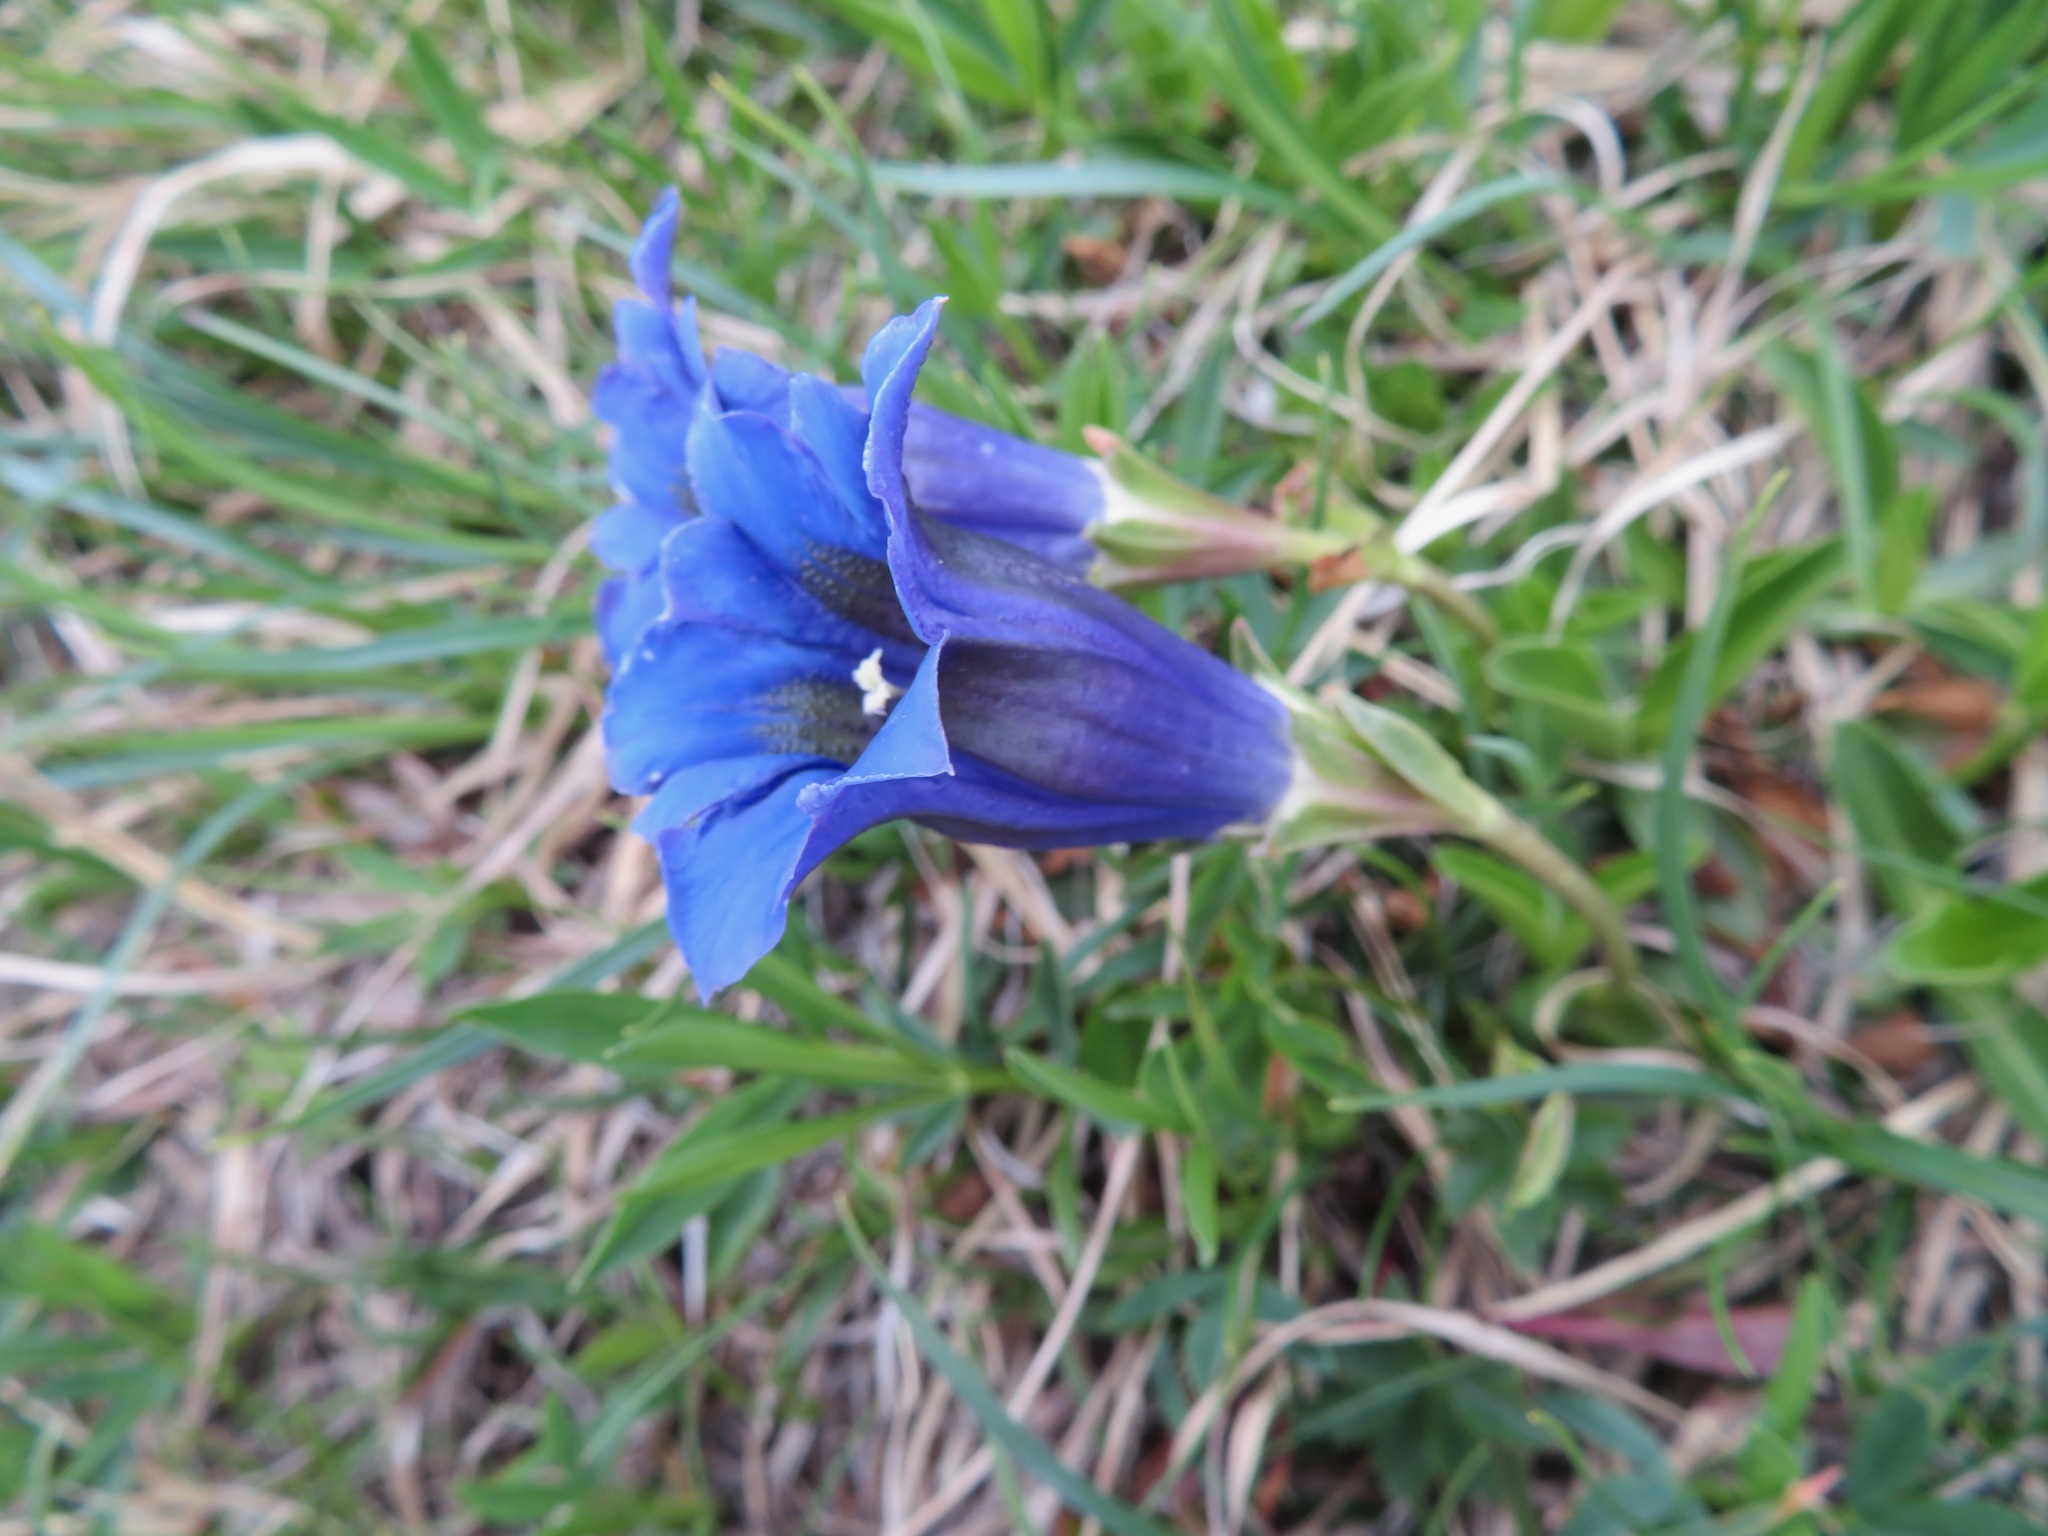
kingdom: Plantae
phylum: Tracheophyta
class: Magnoliopsida
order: Gentianales
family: Gentianaceae
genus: Gentiana
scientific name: Gentiana acaulis
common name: Trumpet gentian
